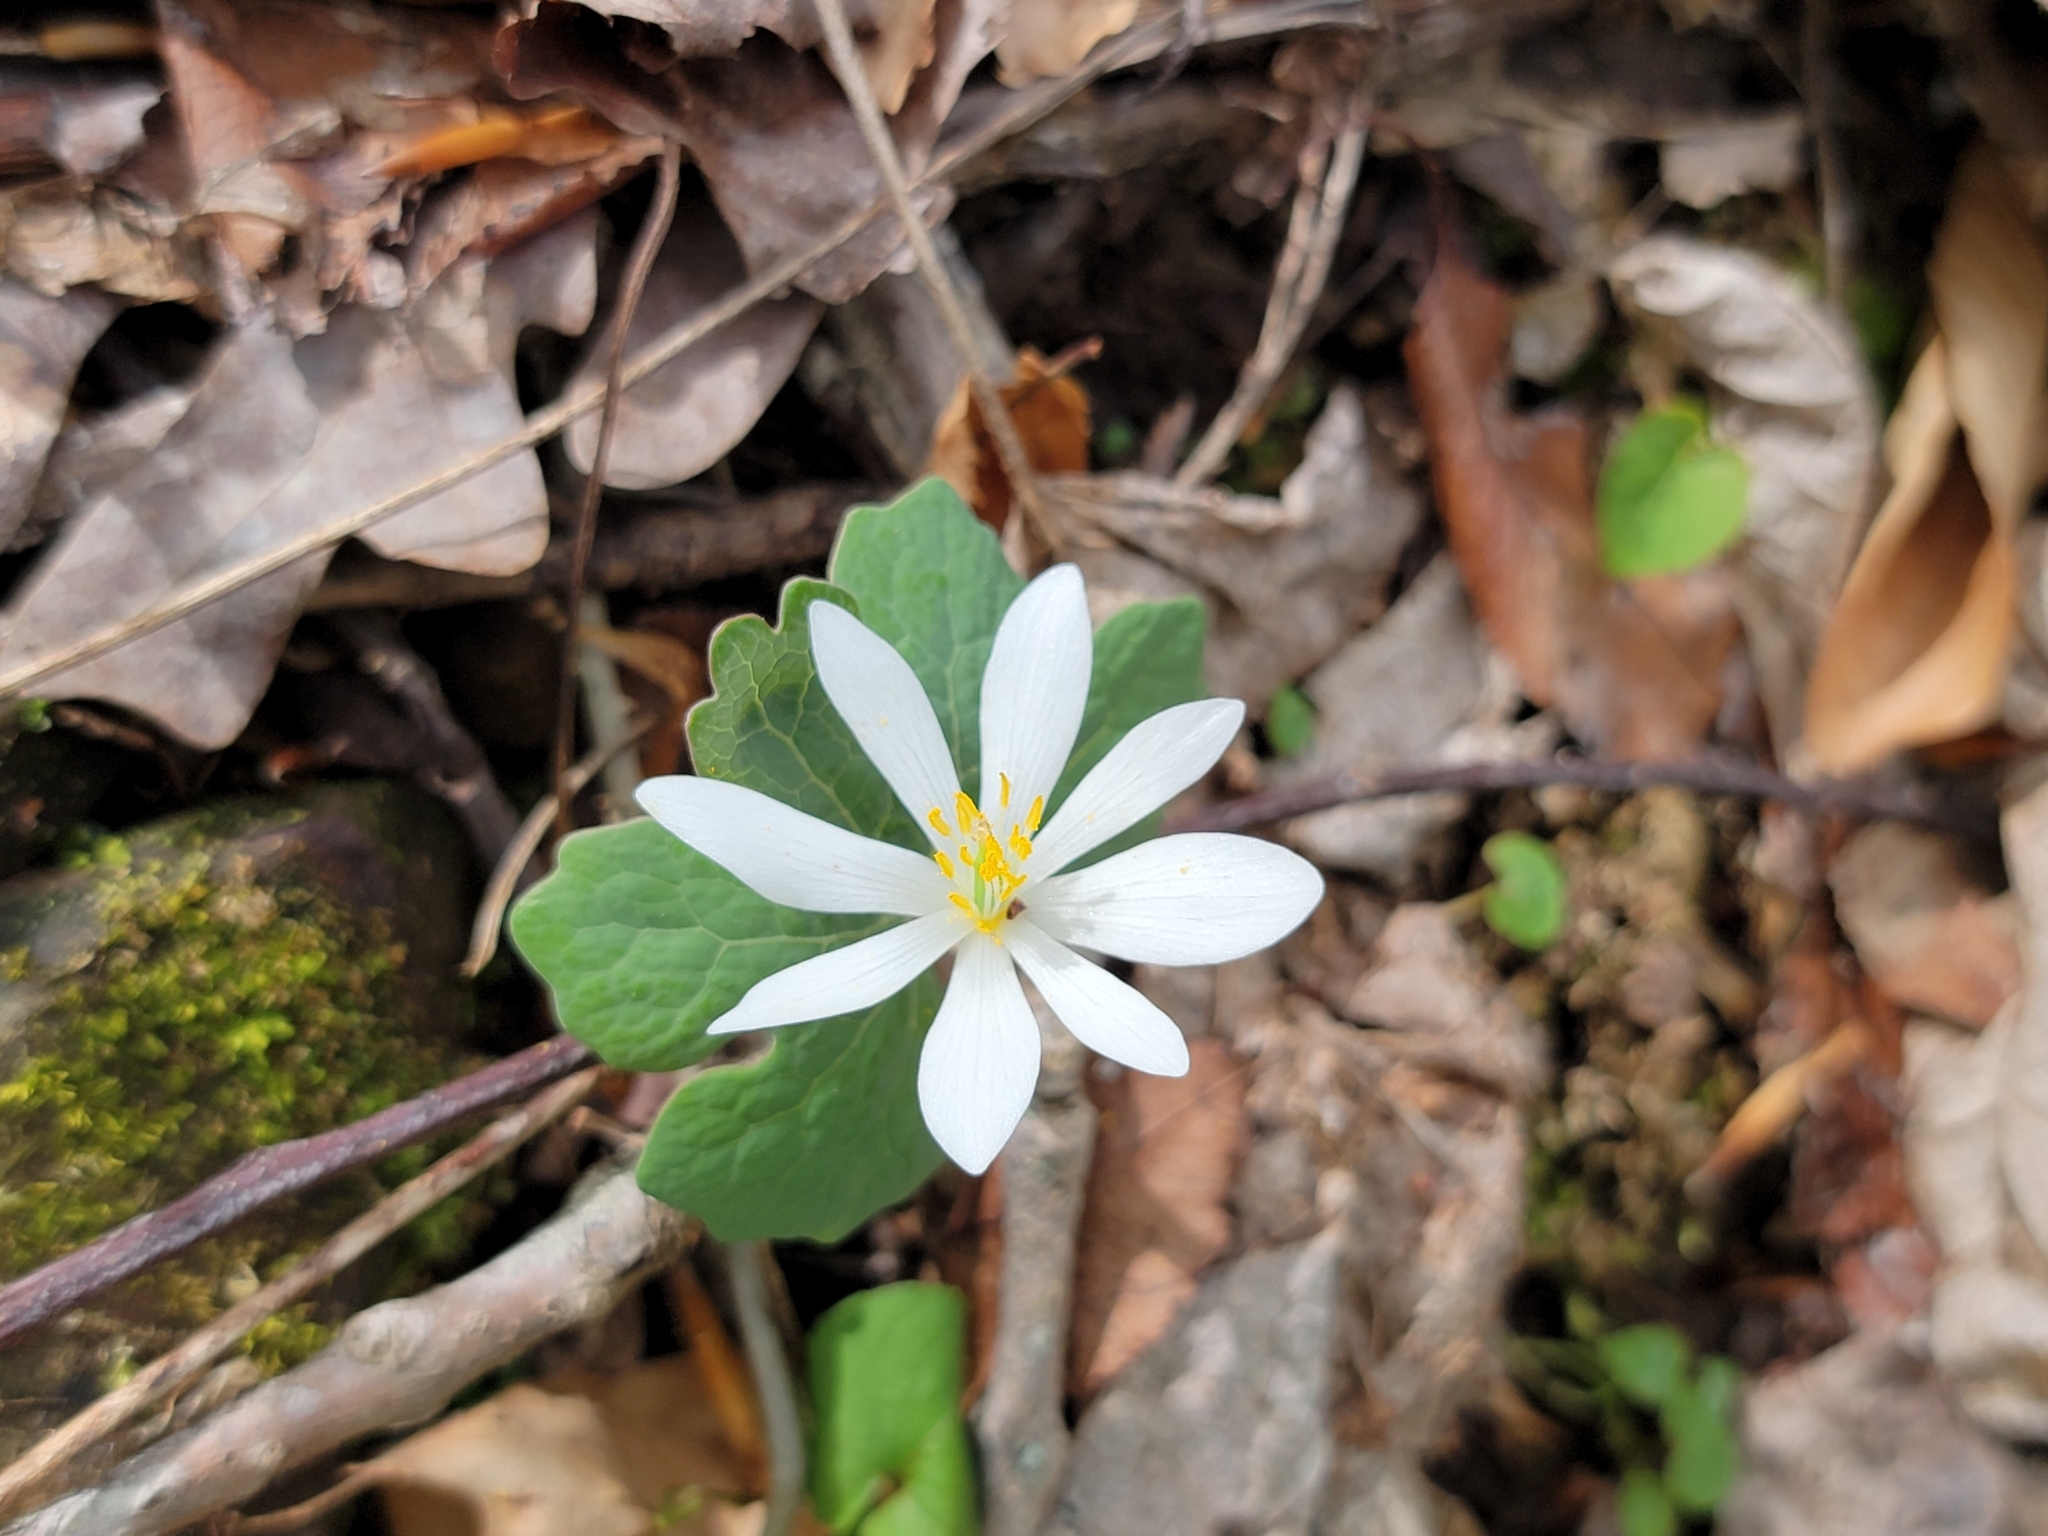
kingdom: Plantae
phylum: Tracheophyta
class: Magnoliopsida
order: Ranunculales
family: Papaveraceae
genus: Sanguinaria
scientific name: Sanguinaria canadensis
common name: Bloodroot
